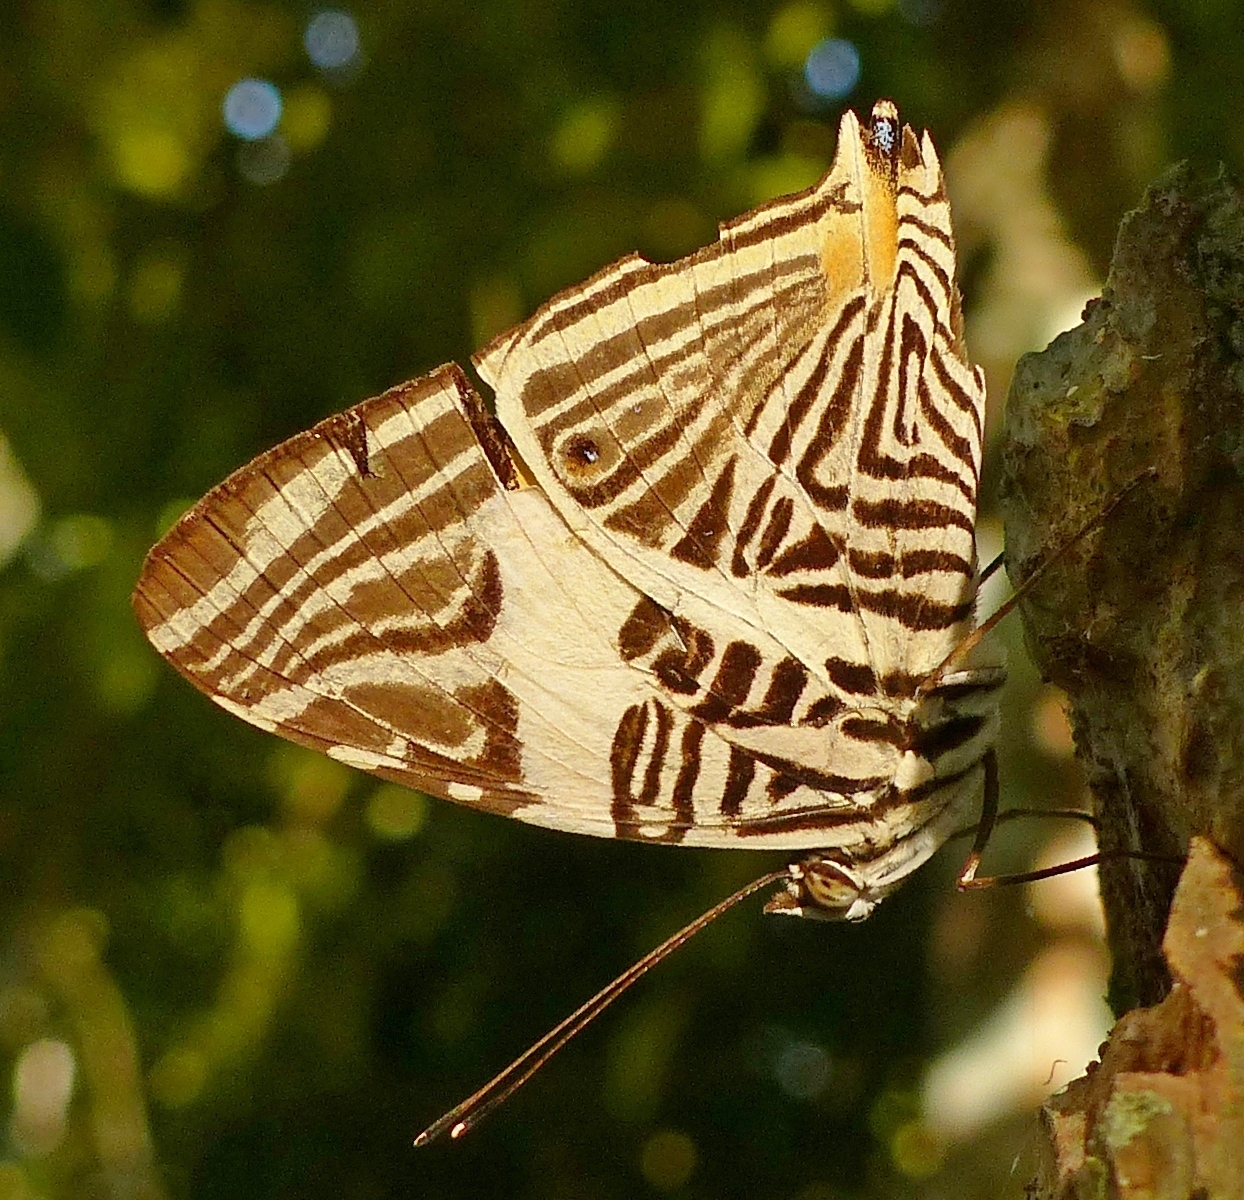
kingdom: Animalia
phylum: Arthropoda
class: Insecta
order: Lepidoptera
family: Nymphalidae
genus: Colobura
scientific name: Colobura dirce
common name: Dirce beauty
